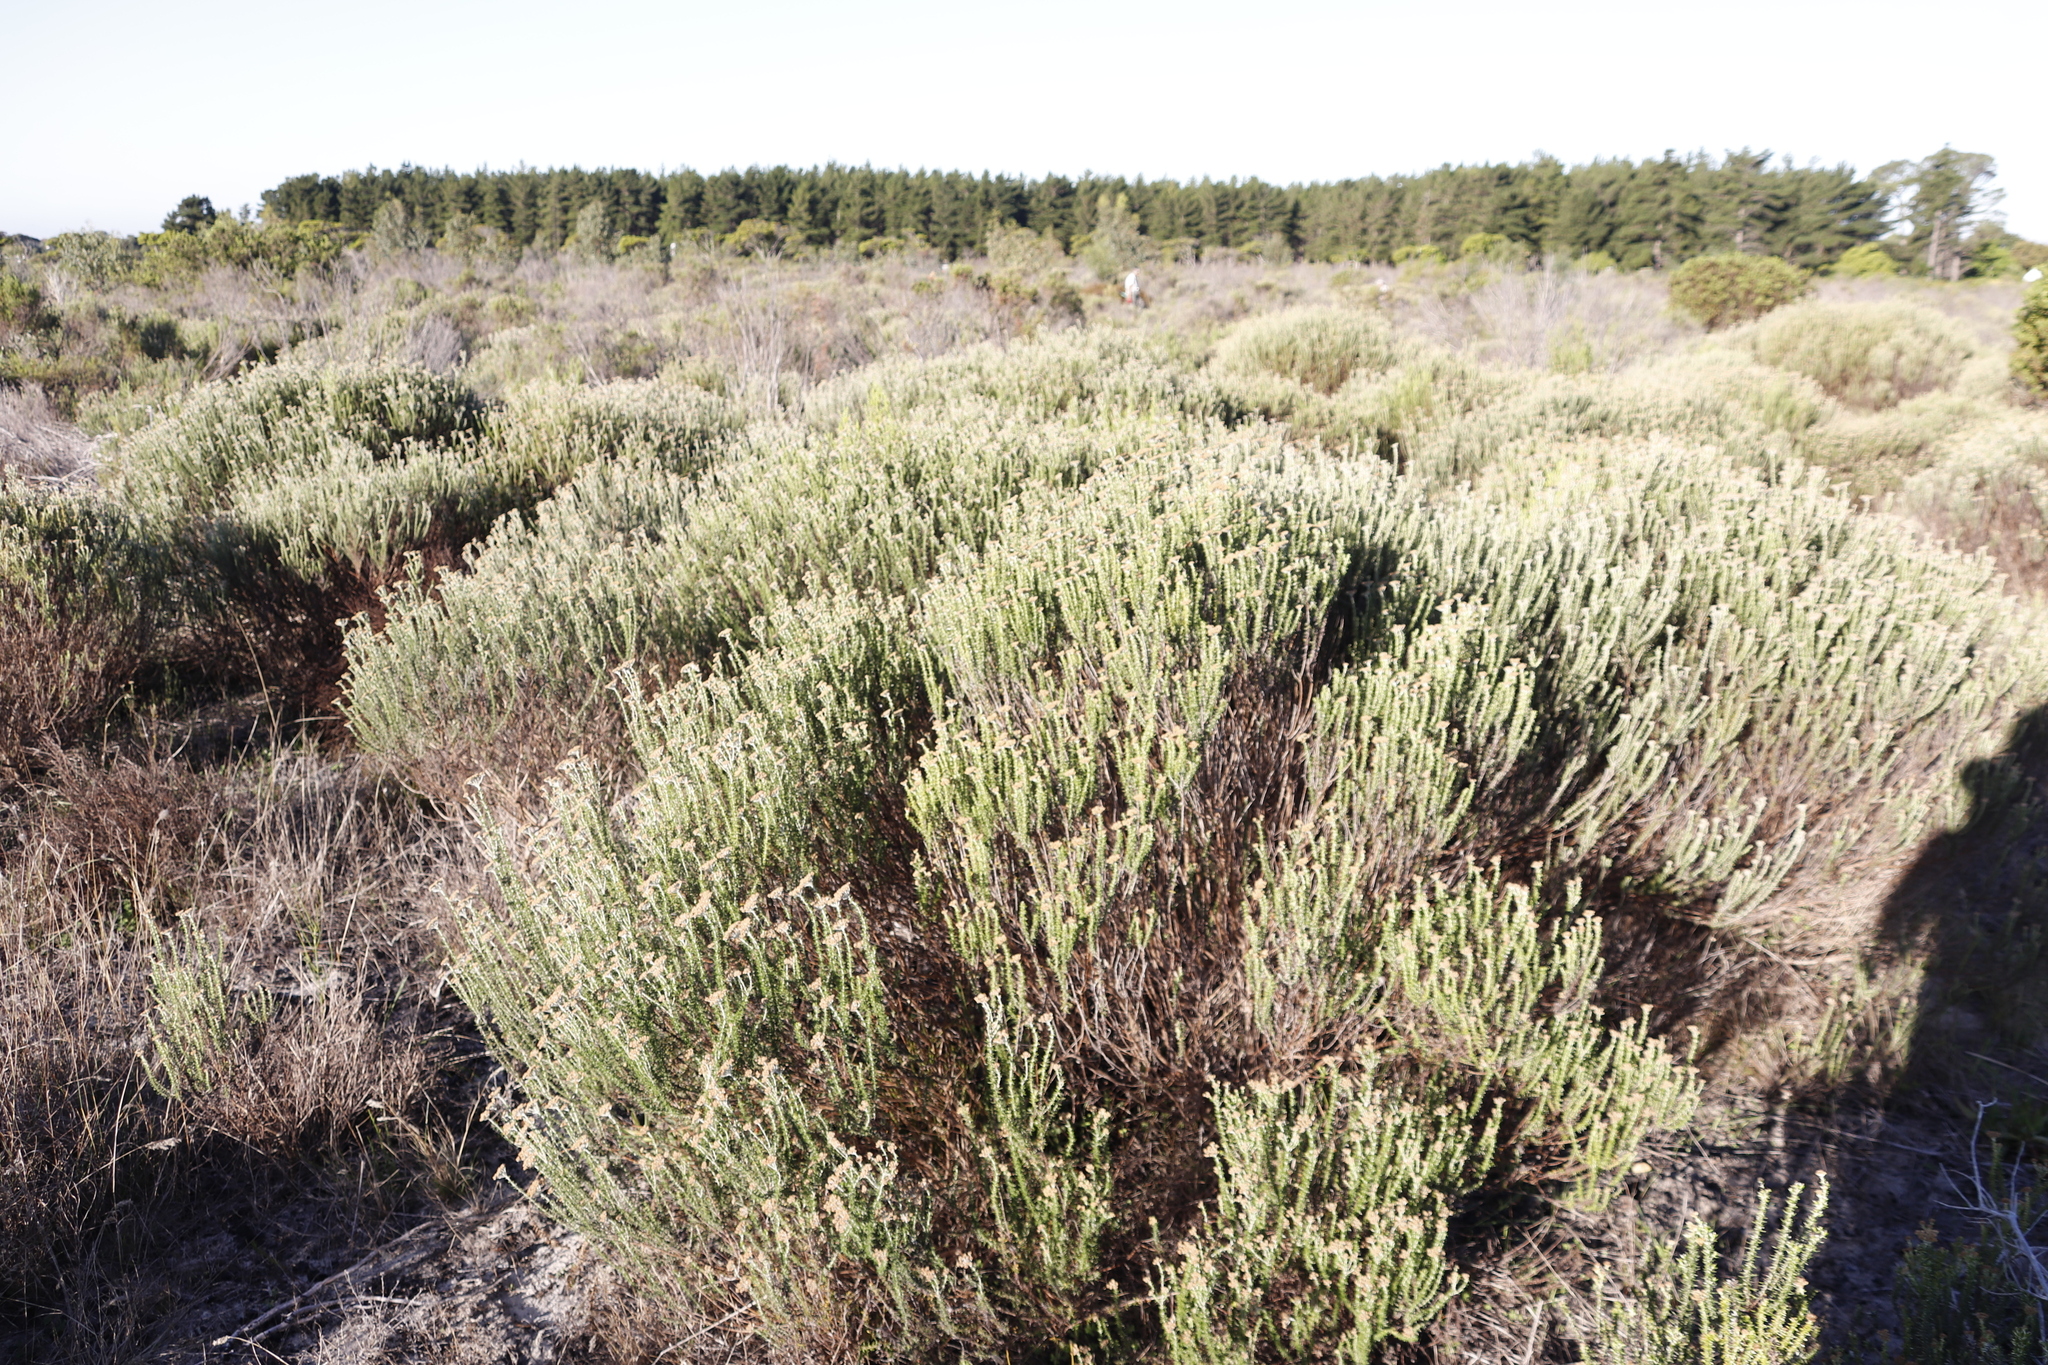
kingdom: Plantae
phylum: Tracheophyta
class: Magnoliopsida
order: Asterales
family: Asteraceae
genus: Metalasia
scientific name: Metalasia densa
